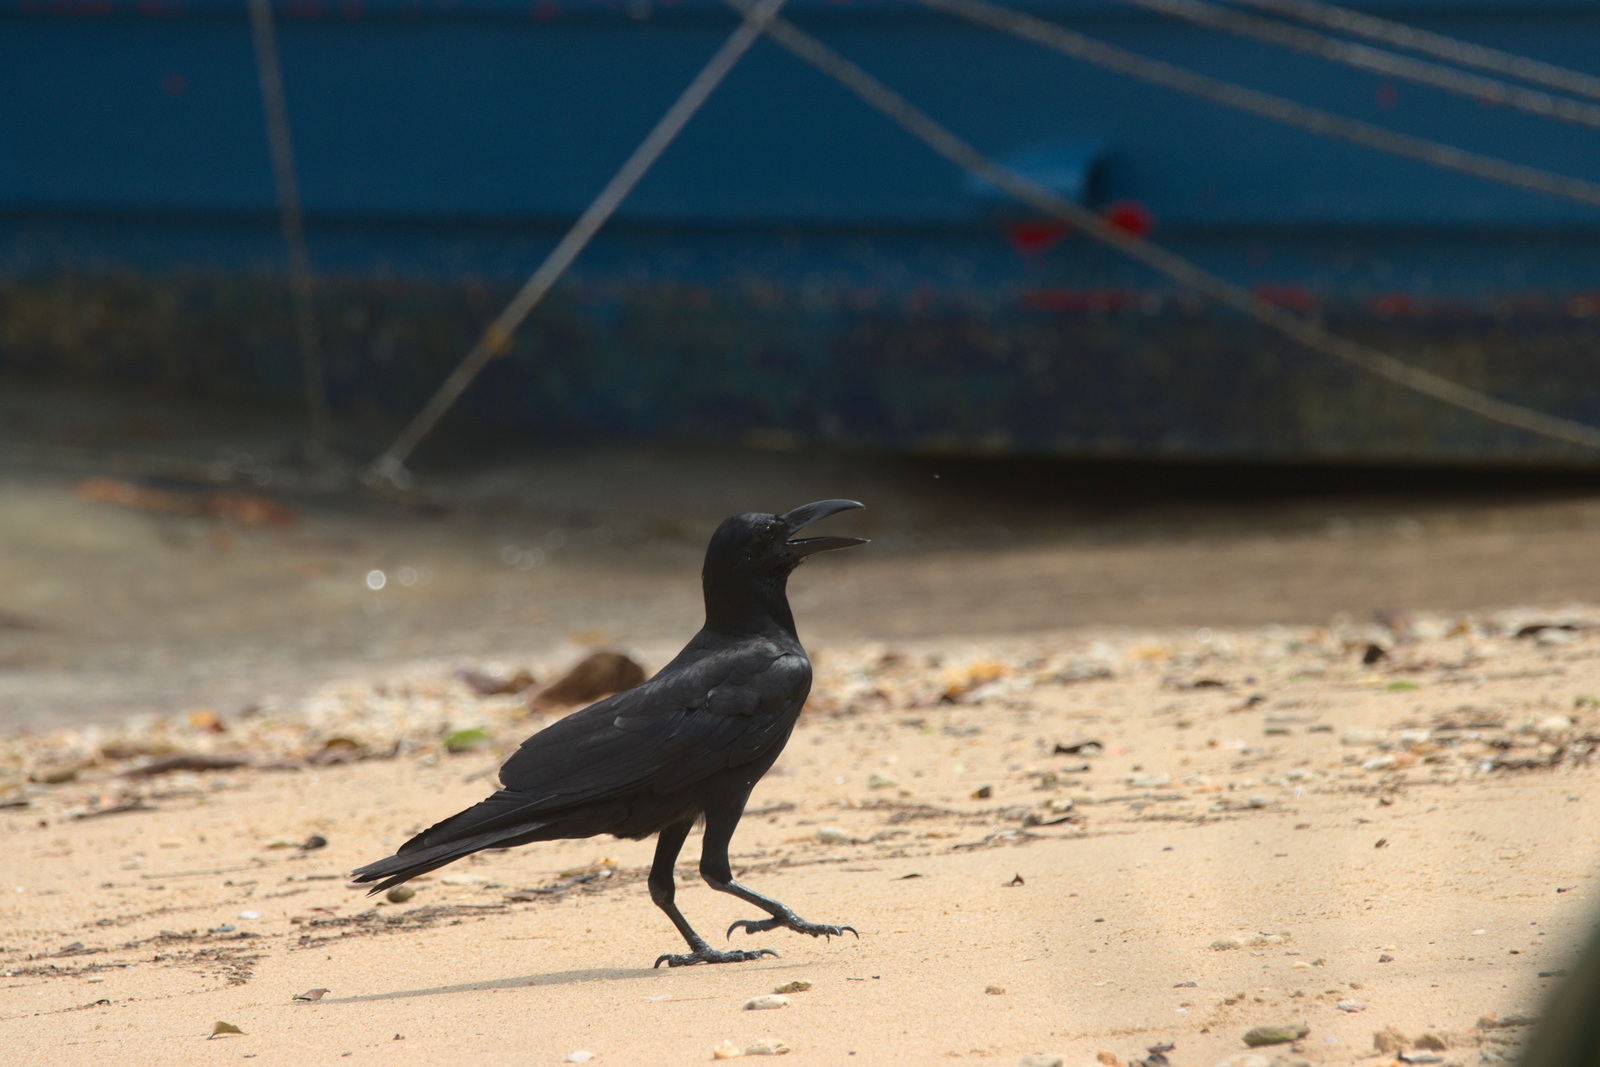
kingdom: Animalia
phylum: Chordata
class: Aves
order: Passeriformes
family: Corvidae
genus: Corvus
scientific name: Corvus macrorhynchos
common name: Large-billed crow
